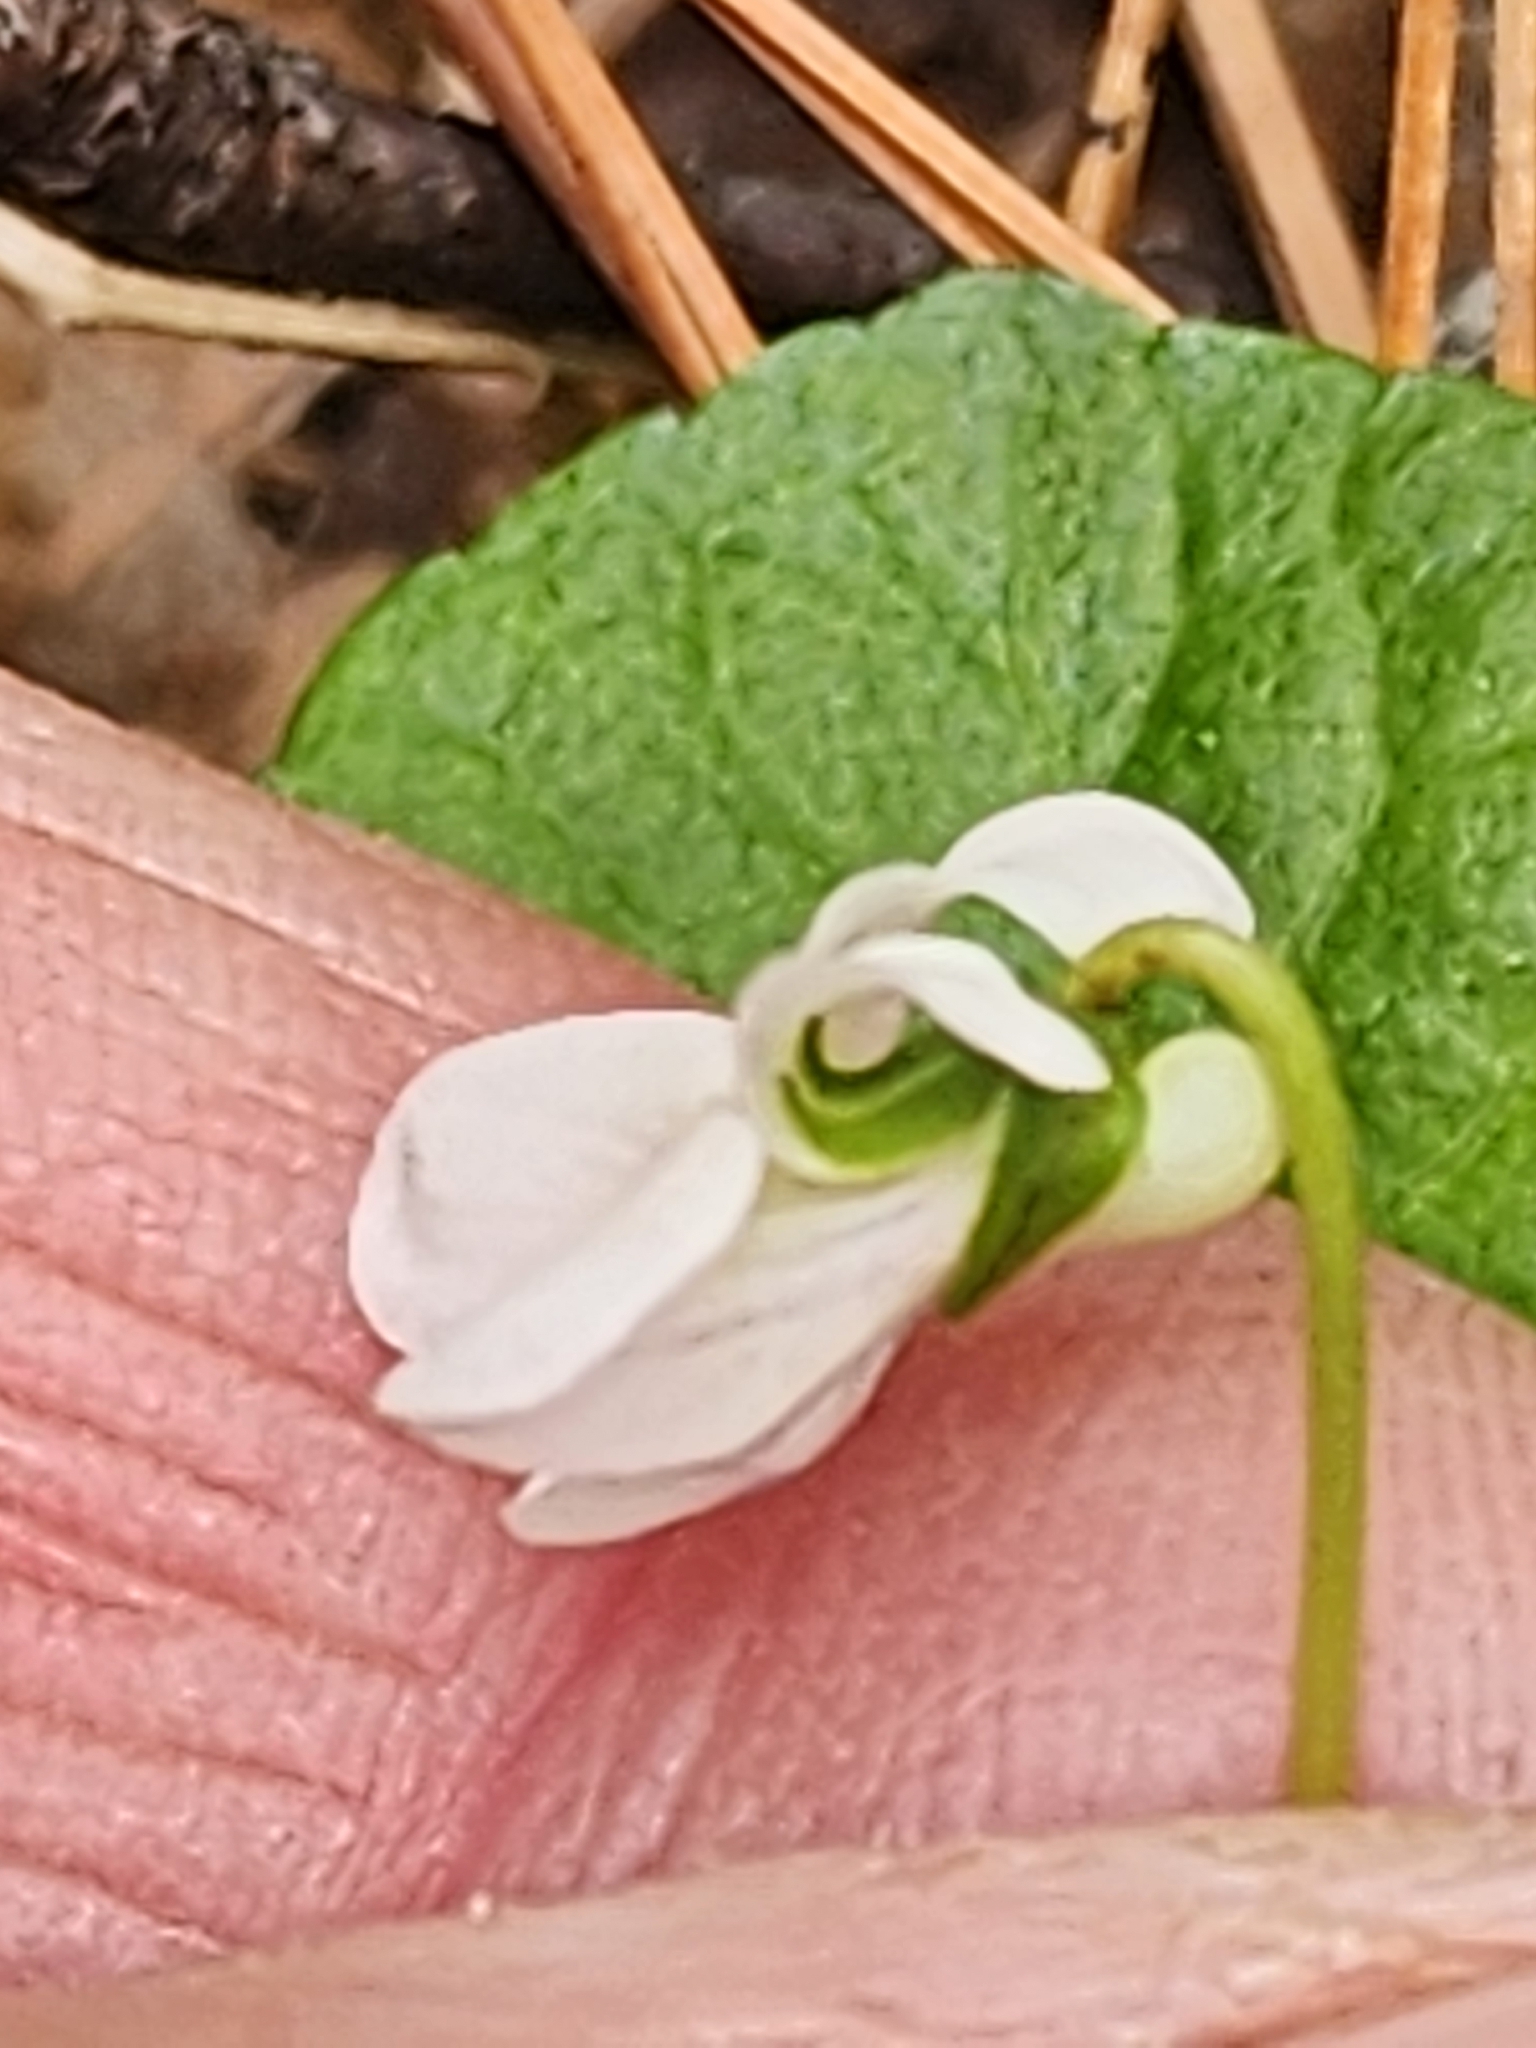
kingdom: Plantae
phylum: Tracheophyta
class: Magnoliopsida
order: Malpighiales
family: Violaceae
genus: Viola
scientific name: Viola renifolia
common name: Kidney-leaf violet
